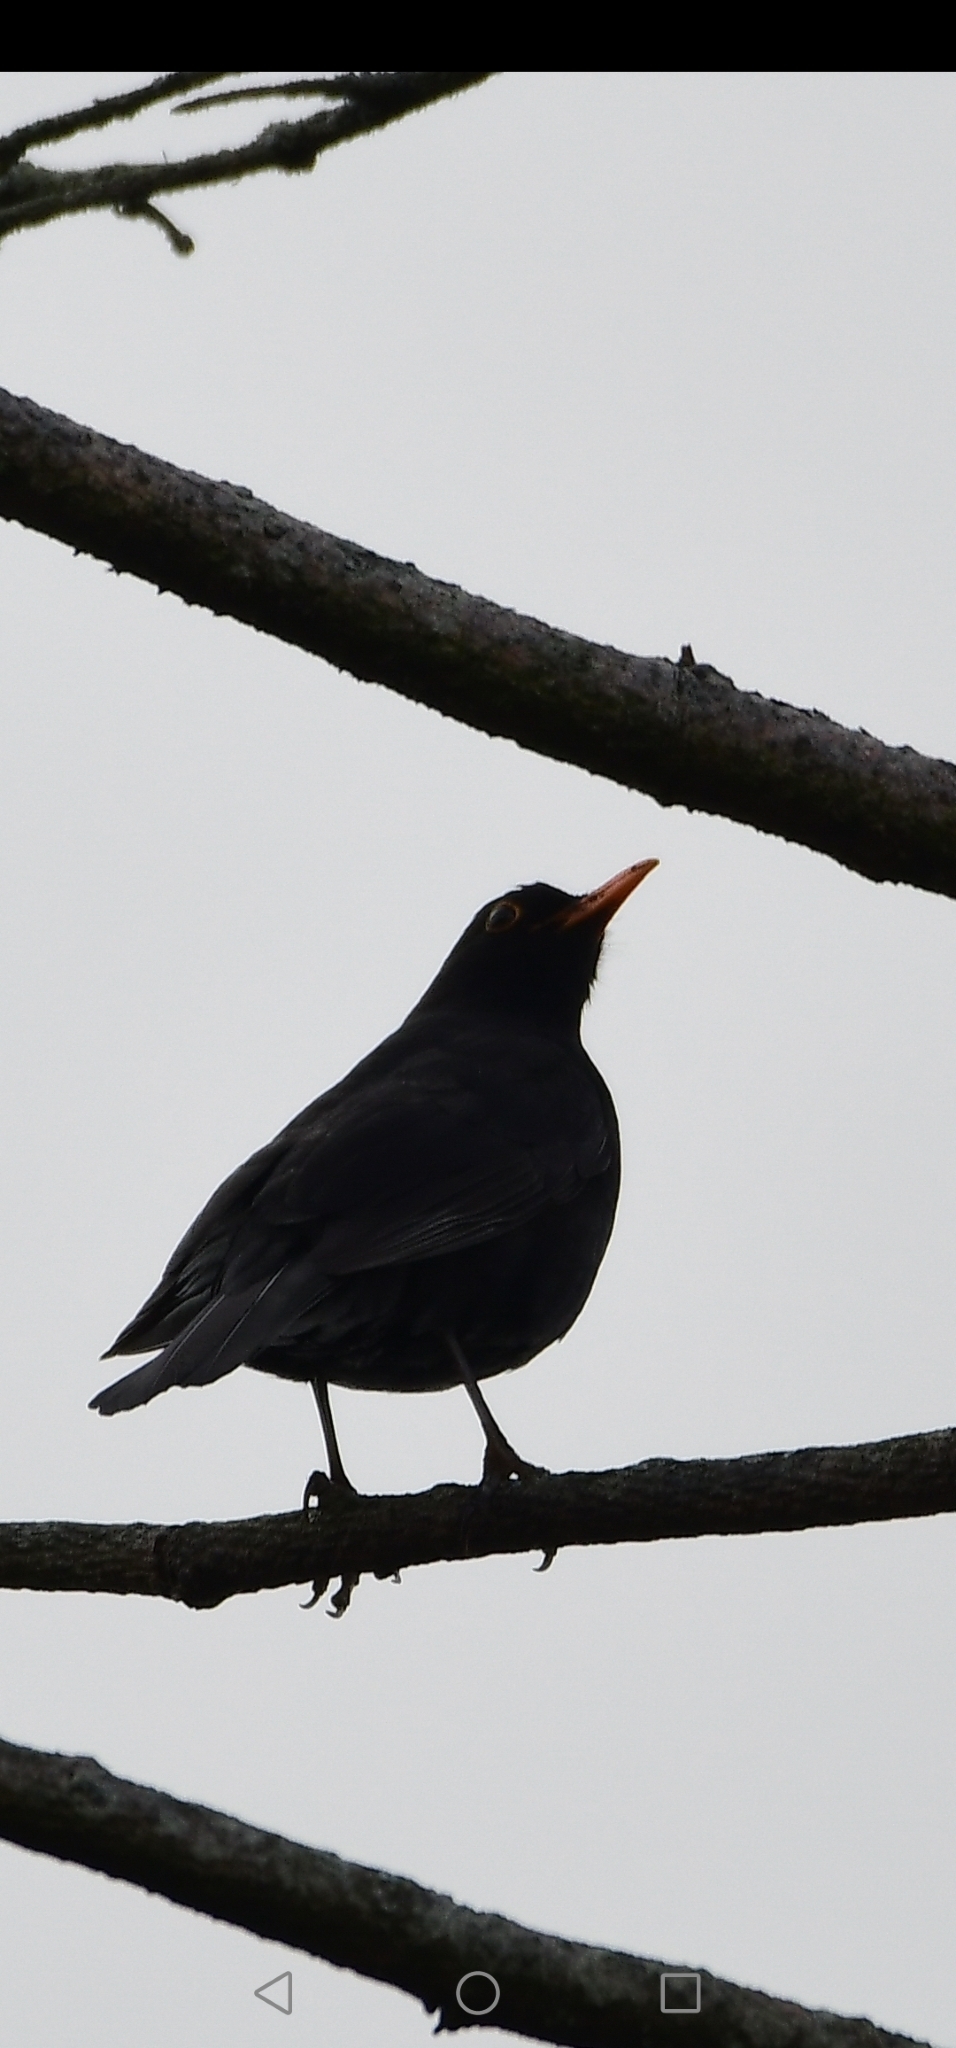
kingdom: Animalia
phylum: Chordata
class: Aves
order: Passeriformes
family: Turdidae
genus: Turdus
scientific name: Turdus merula
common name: Common blackbird
